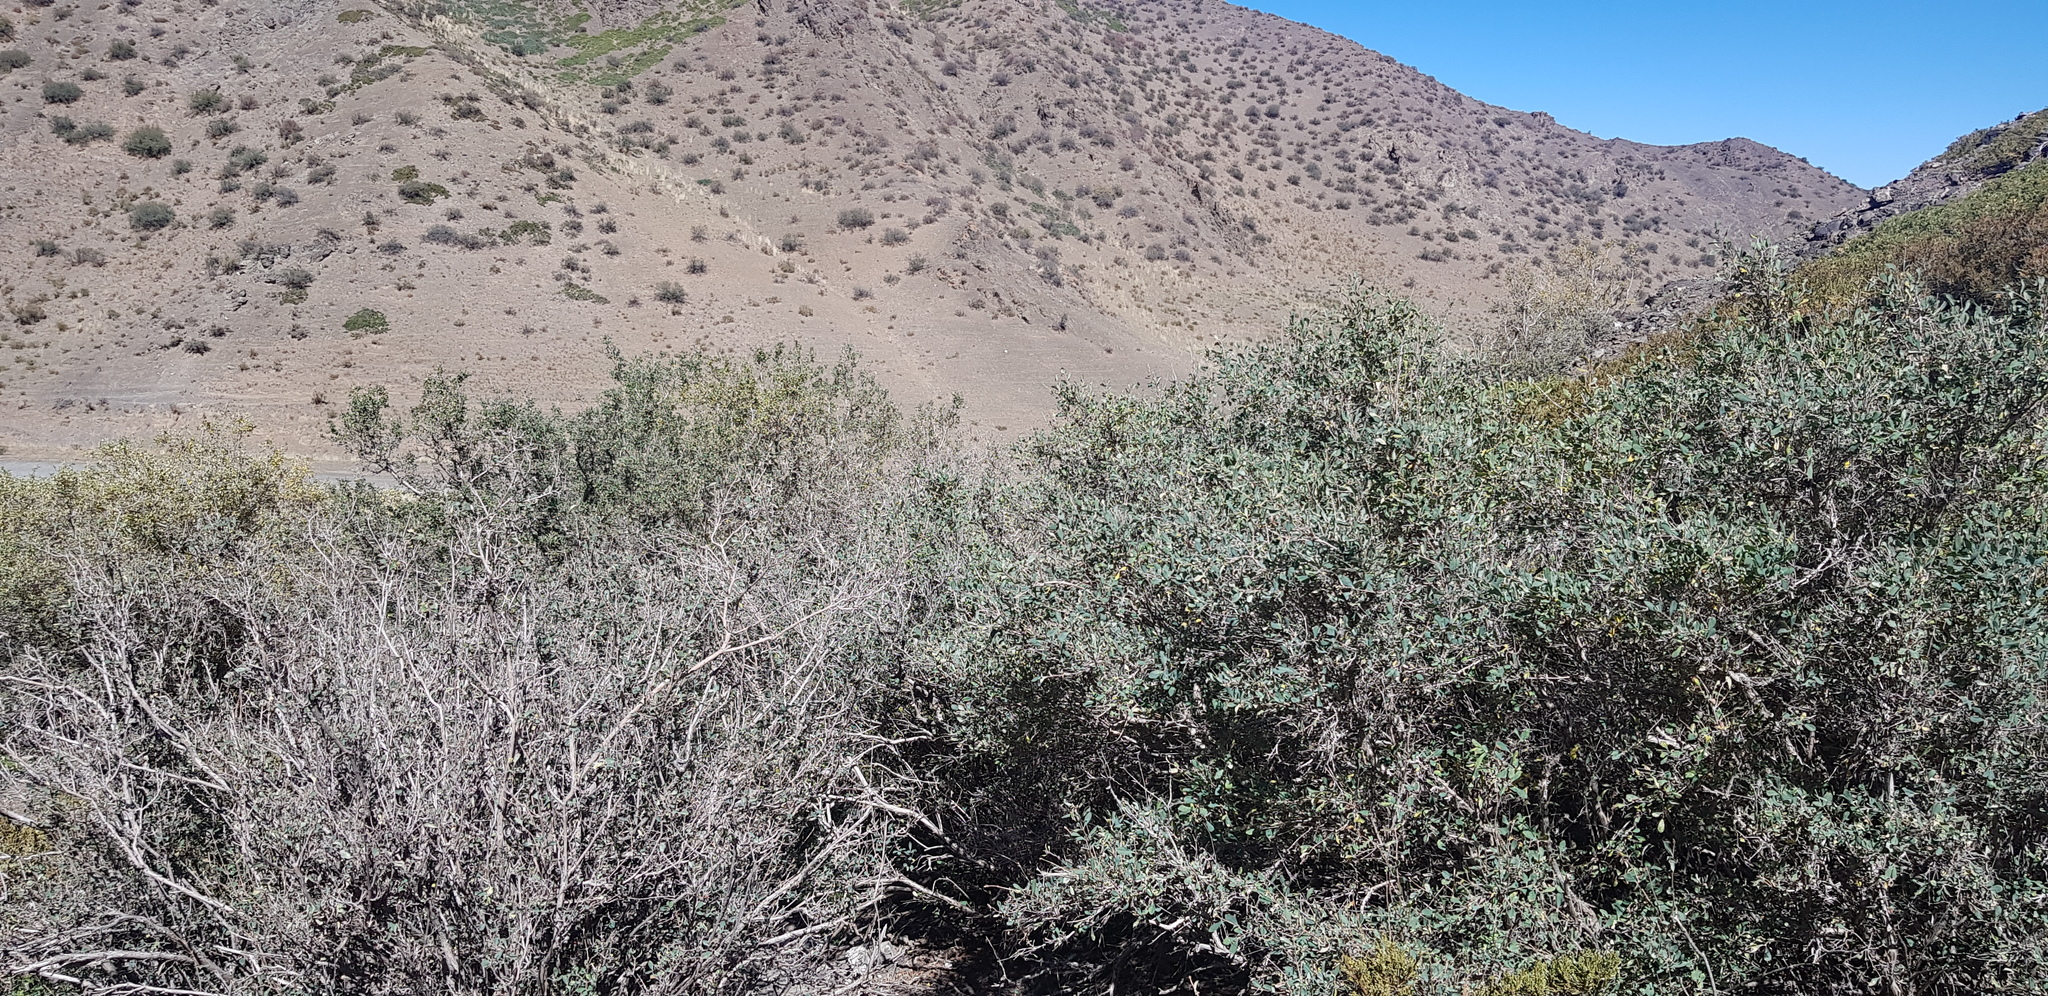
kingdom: Plantae
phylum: Tracheophyta
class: Magnoliopsida
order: Caryophyllales
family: Polygonaceae
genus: Atraphaxis
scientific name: Atraphaxis frutescens
